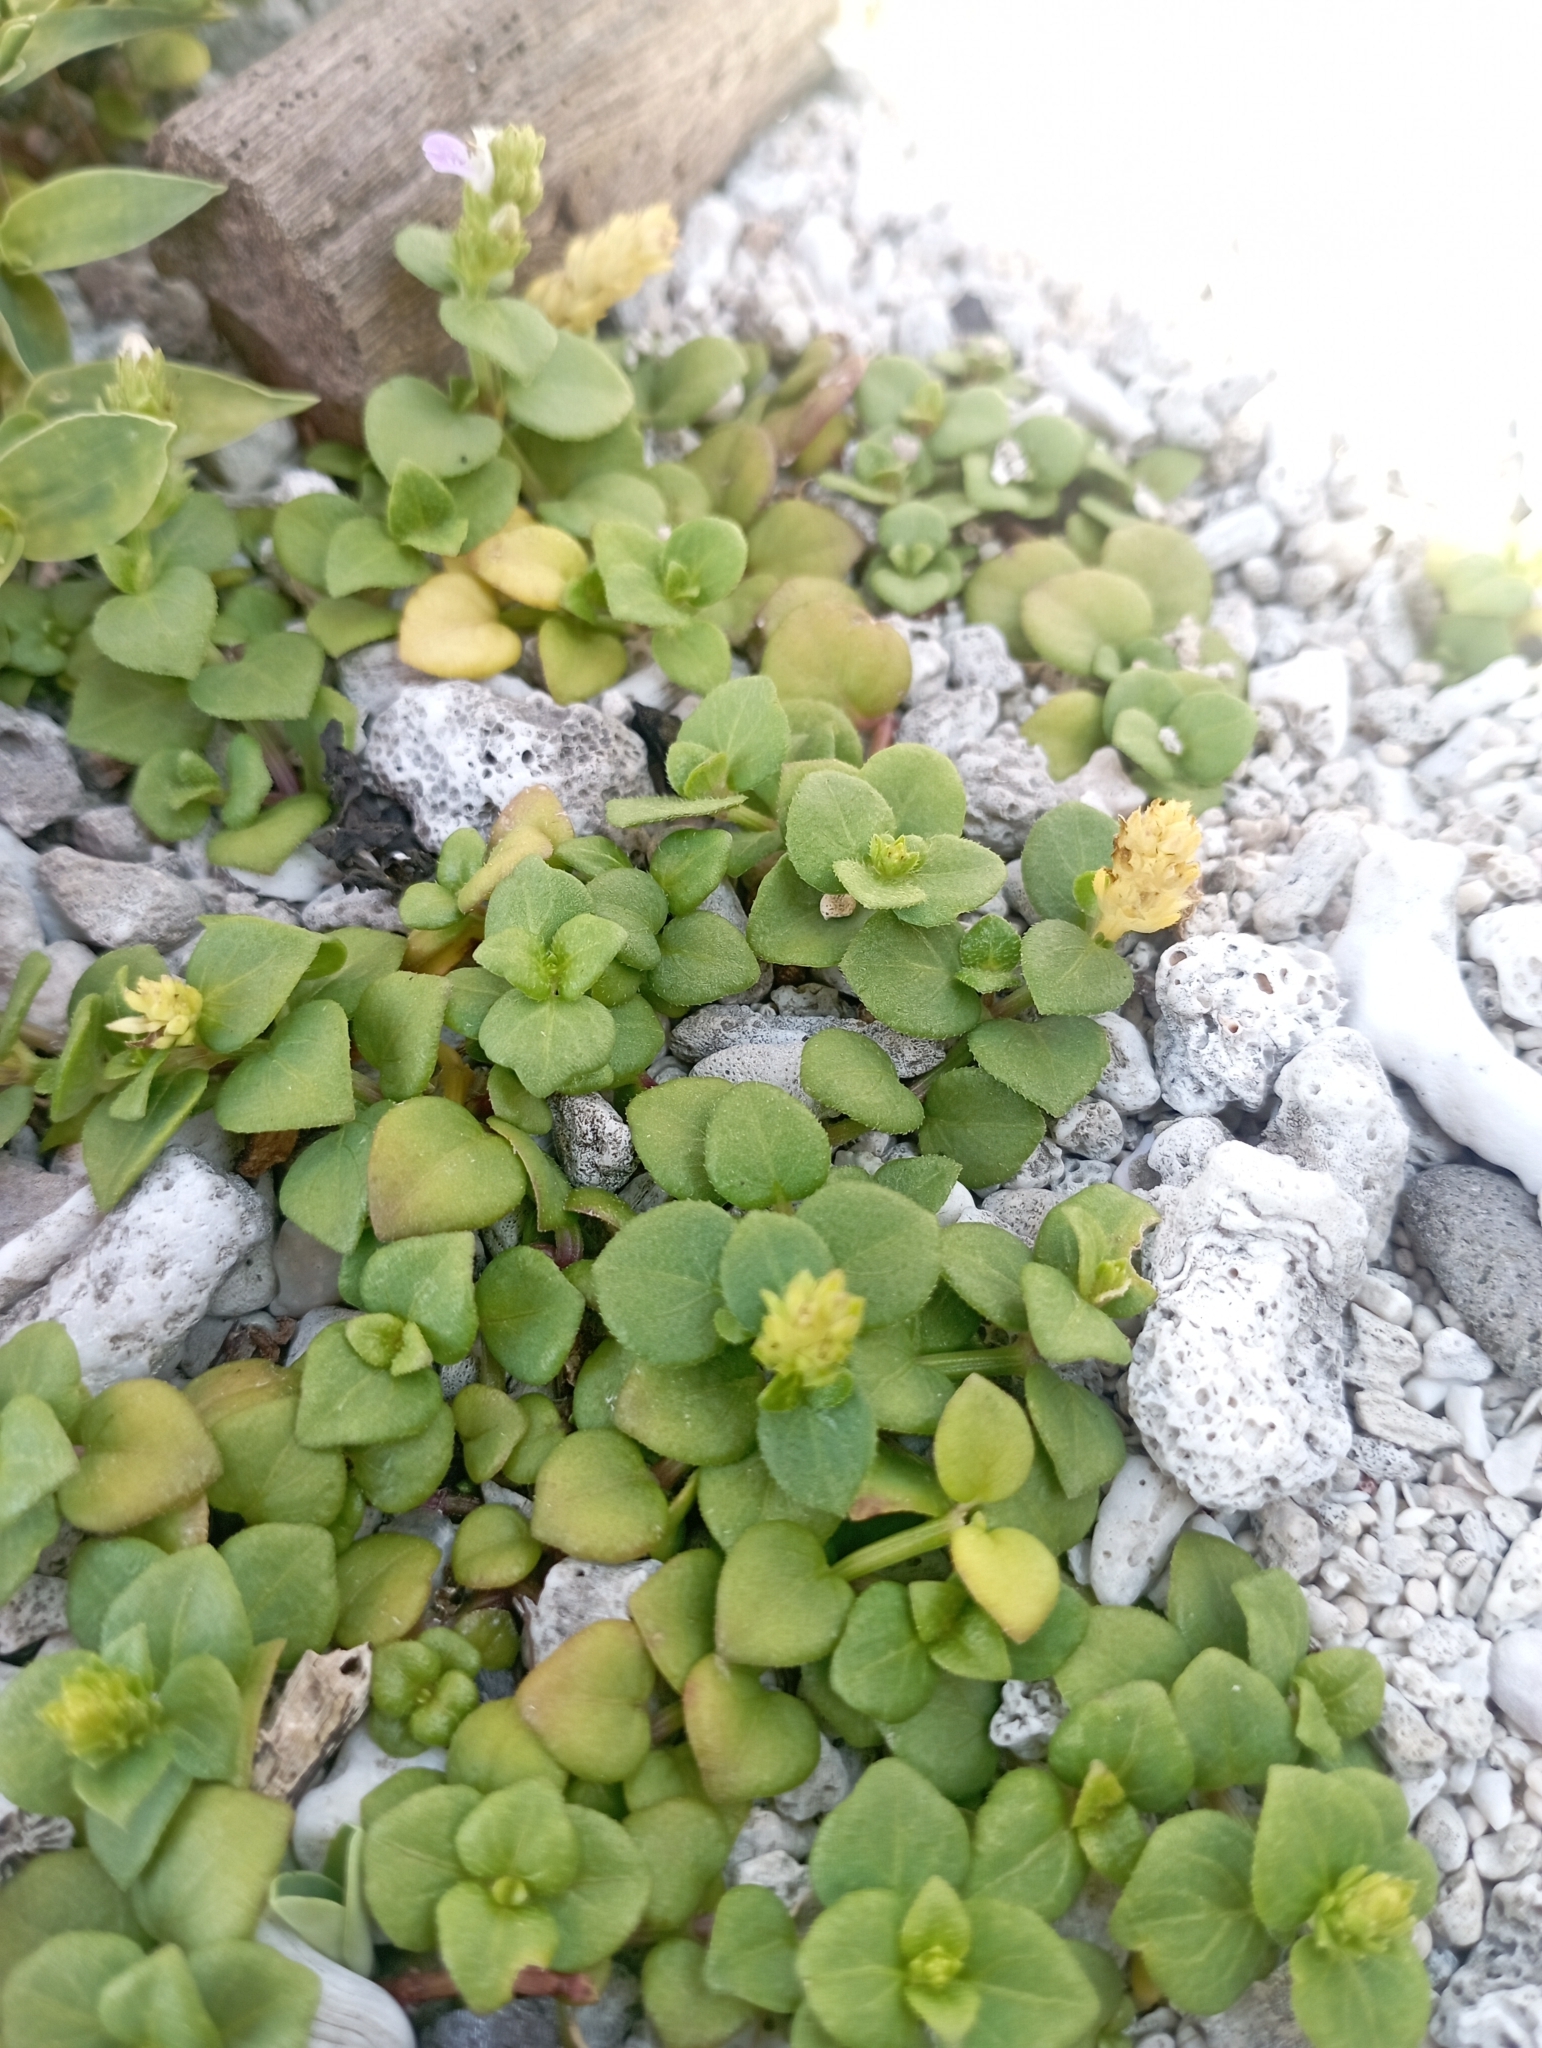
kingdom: Plantae
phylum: Tracheophyta
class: Magnoliopsida
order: Lamiales
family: Acanthaceae
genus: Rostellularia
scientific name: Rostellularia hayatae
